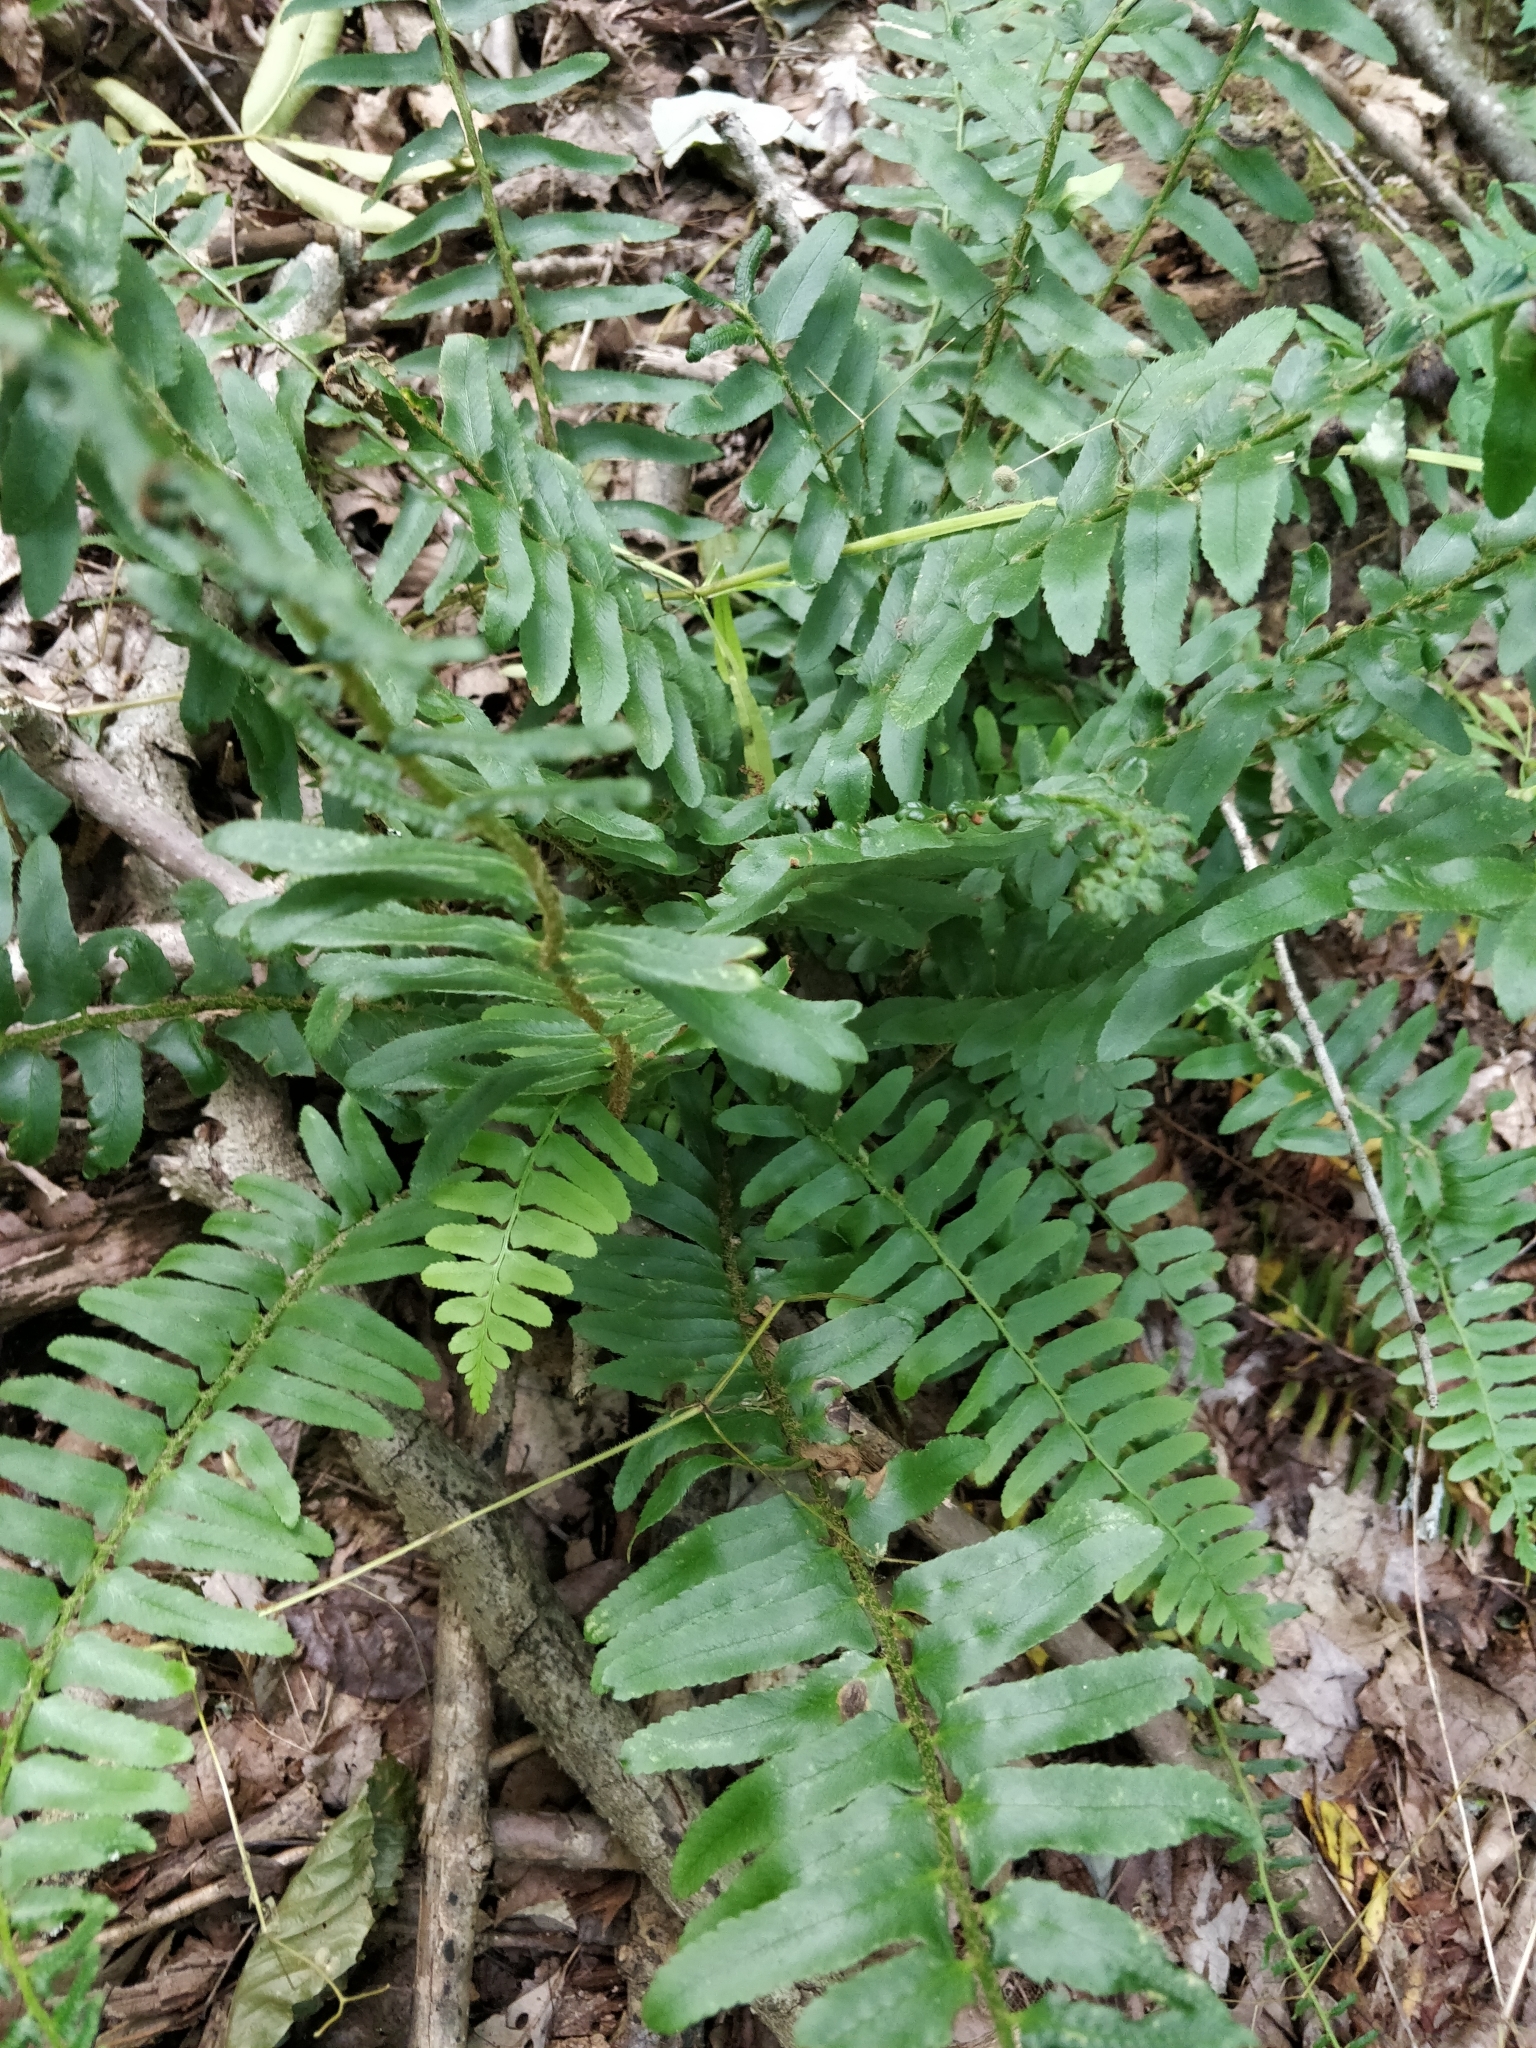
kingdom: Plantae
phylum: Tracheophyta
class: Polypodiopsida
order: Polypodiales
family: Dryopteridaceae
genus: Polystichum
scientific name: Polystichum acrostichoides
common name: Christmas fern
